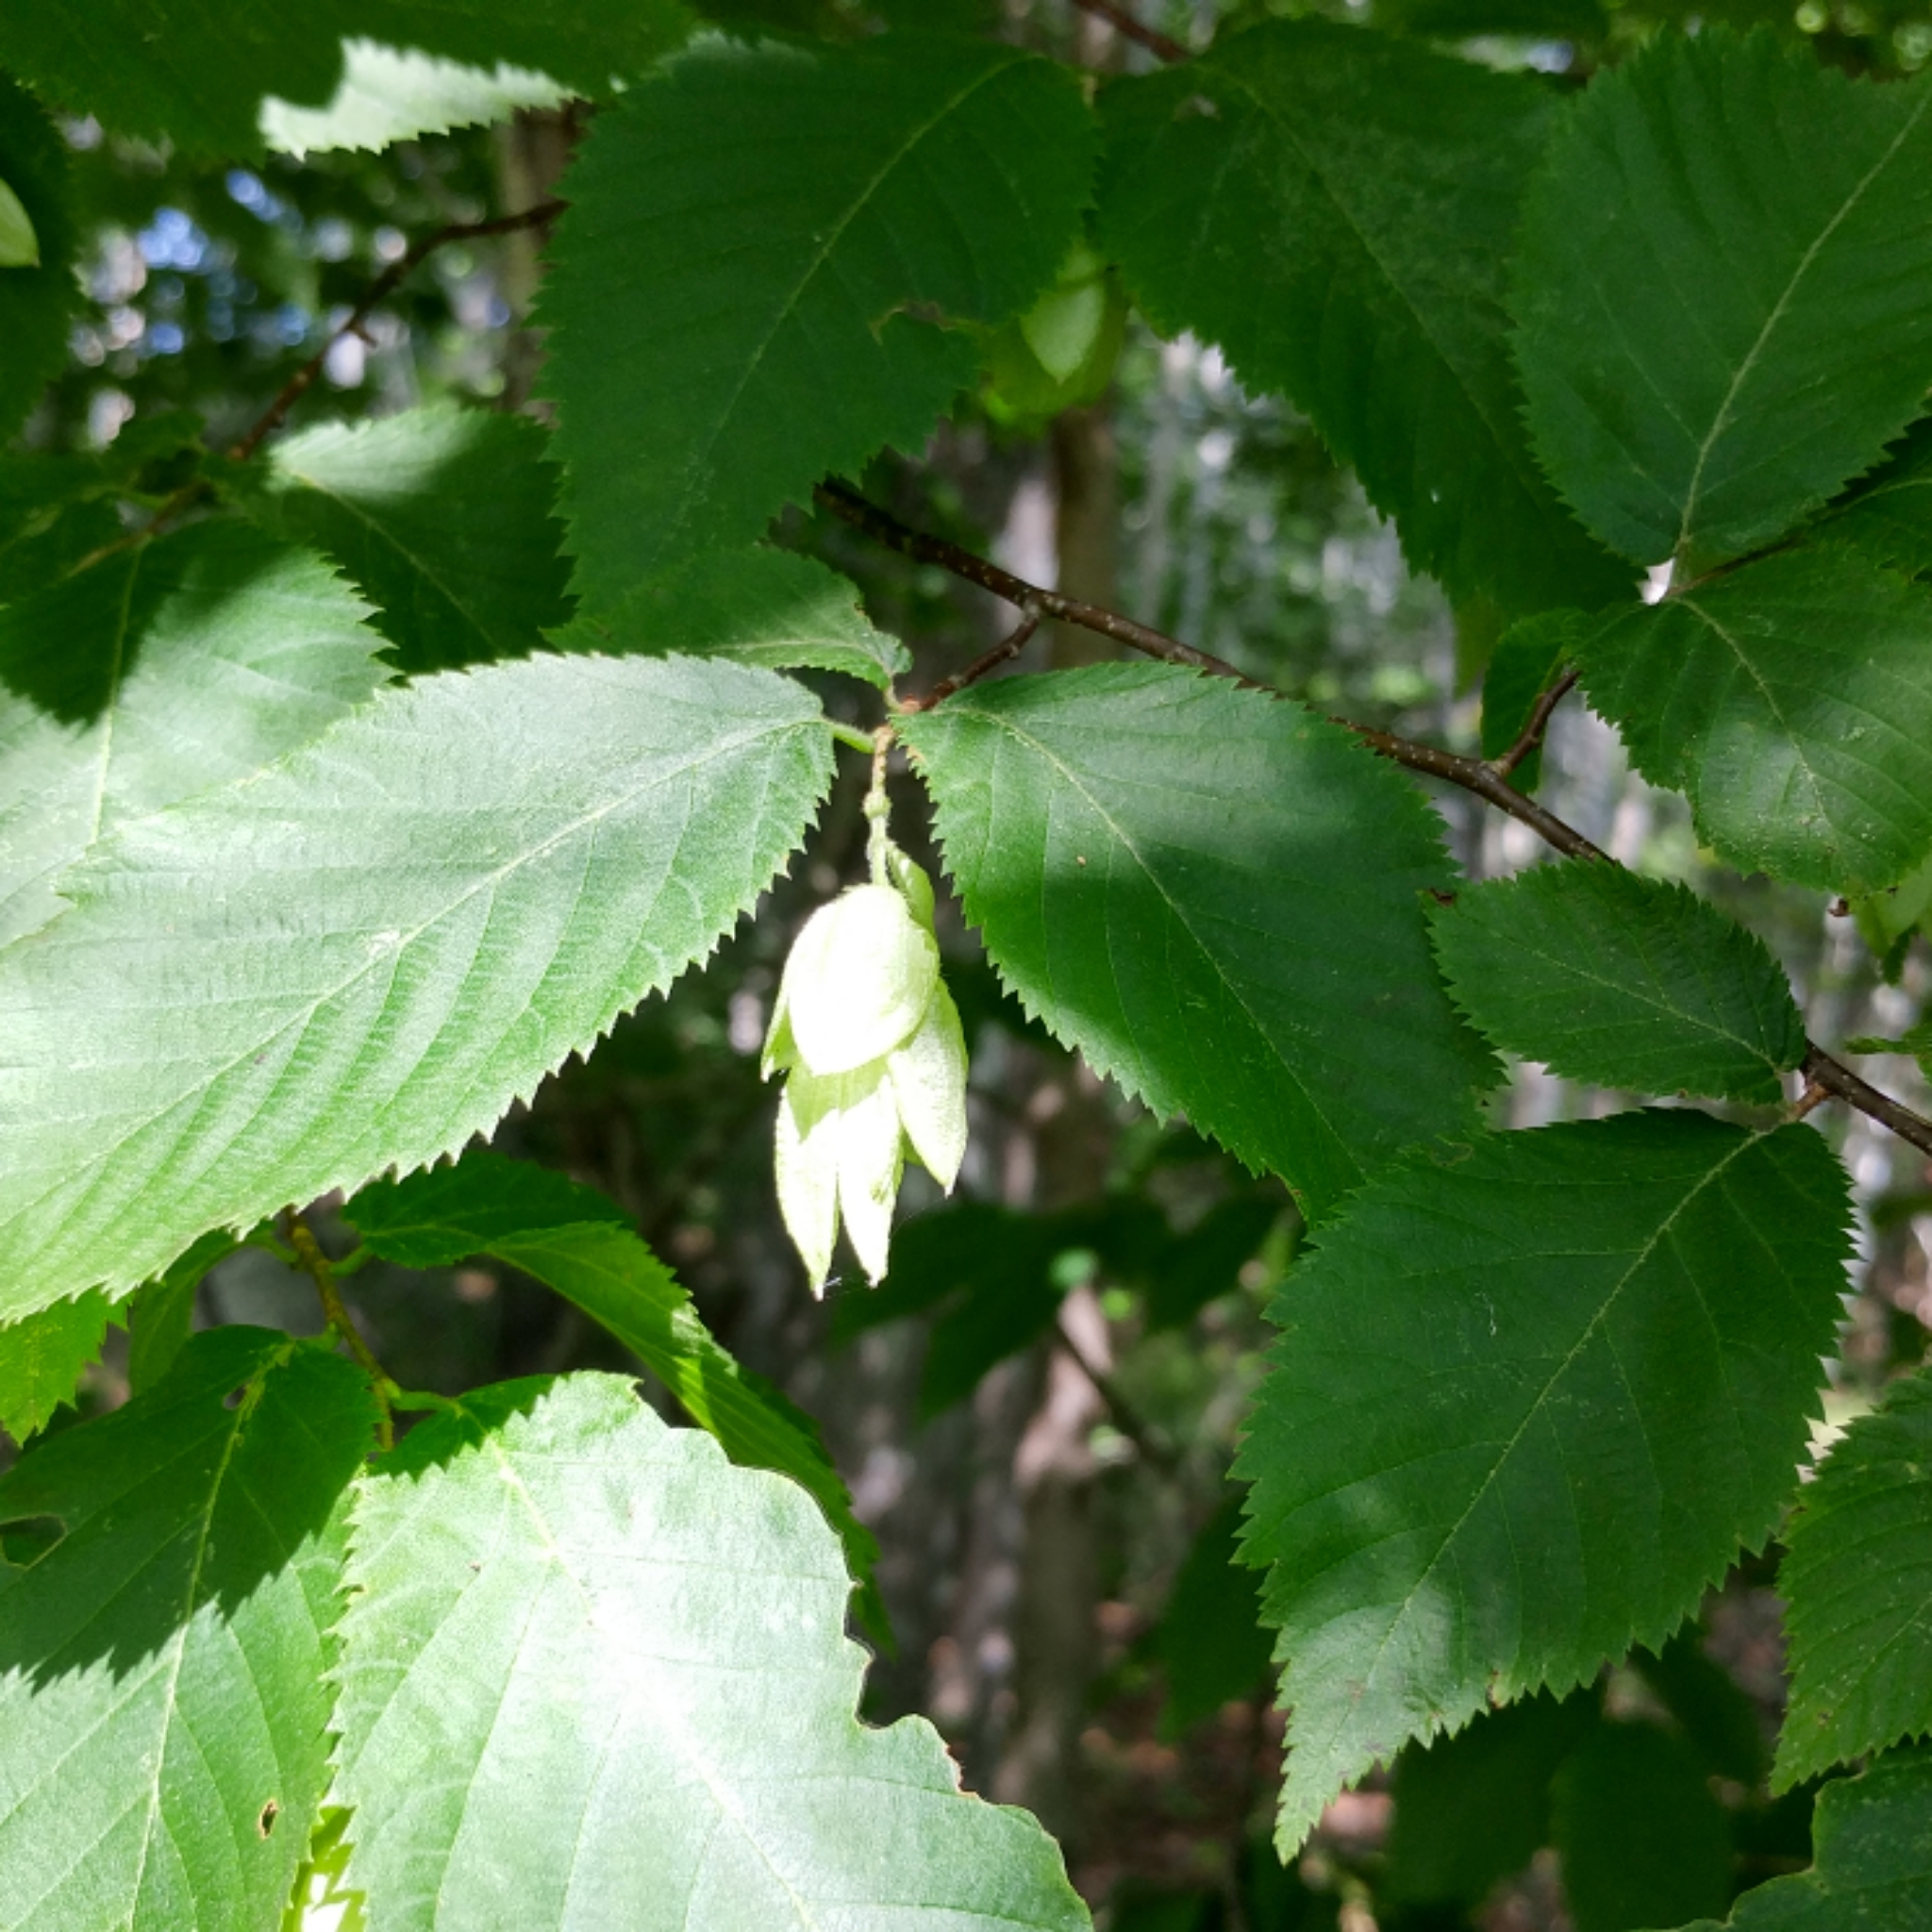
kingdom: Plantae
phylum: Tracheophyta
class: Magnoliopsida
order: Fagales
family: Betulaceae
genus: Ostrya
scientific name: Ostrya virginiana
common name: Ironwood
